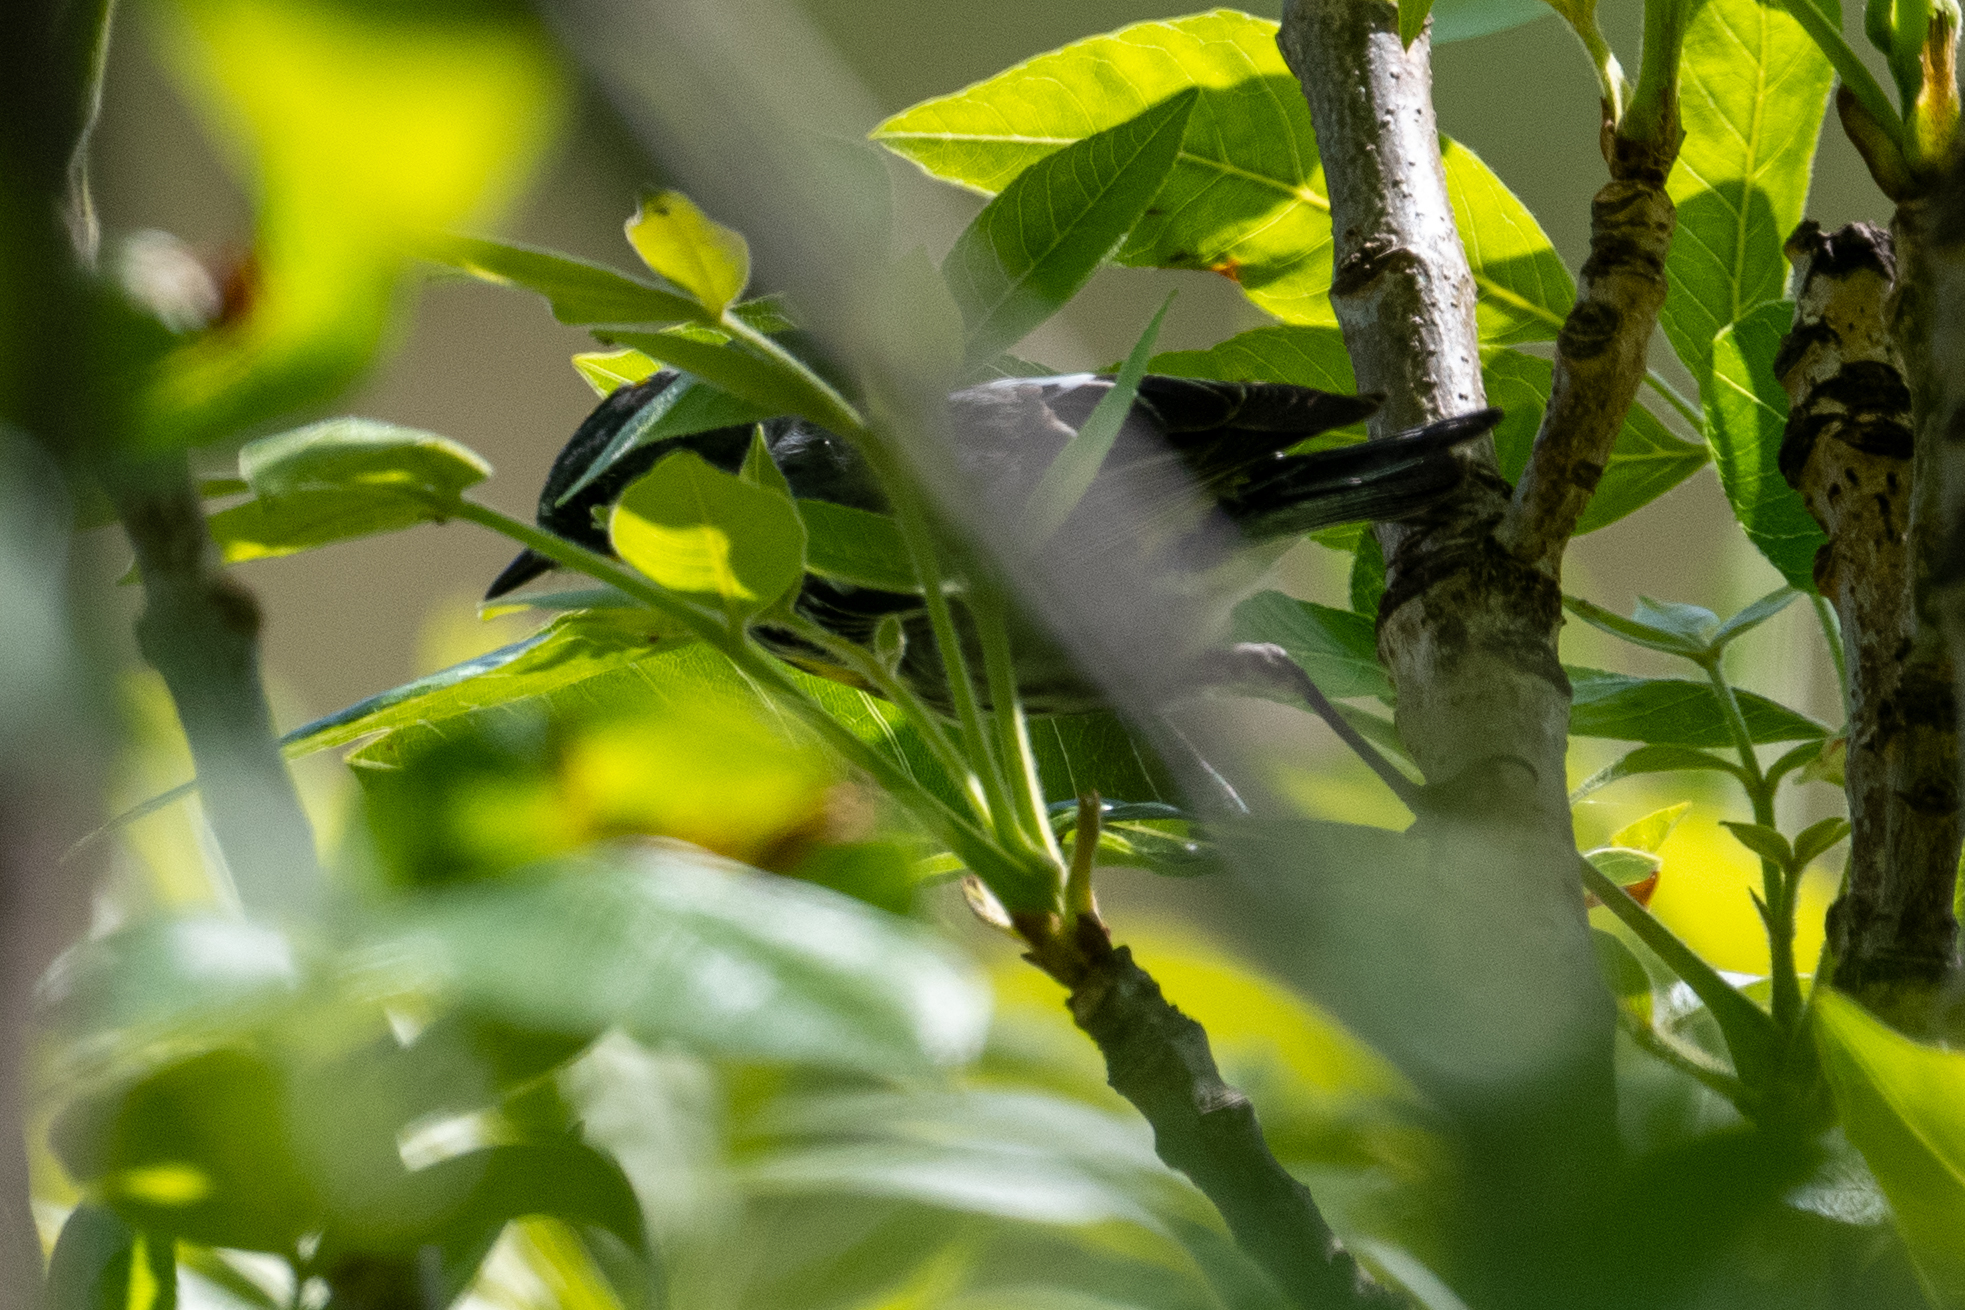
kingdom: Animalia
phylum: Chordata
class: Aves
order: Passeriformes
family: Parulidae
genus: Setophaga
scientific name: Setophaga coronata
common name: Myrtle warbler
